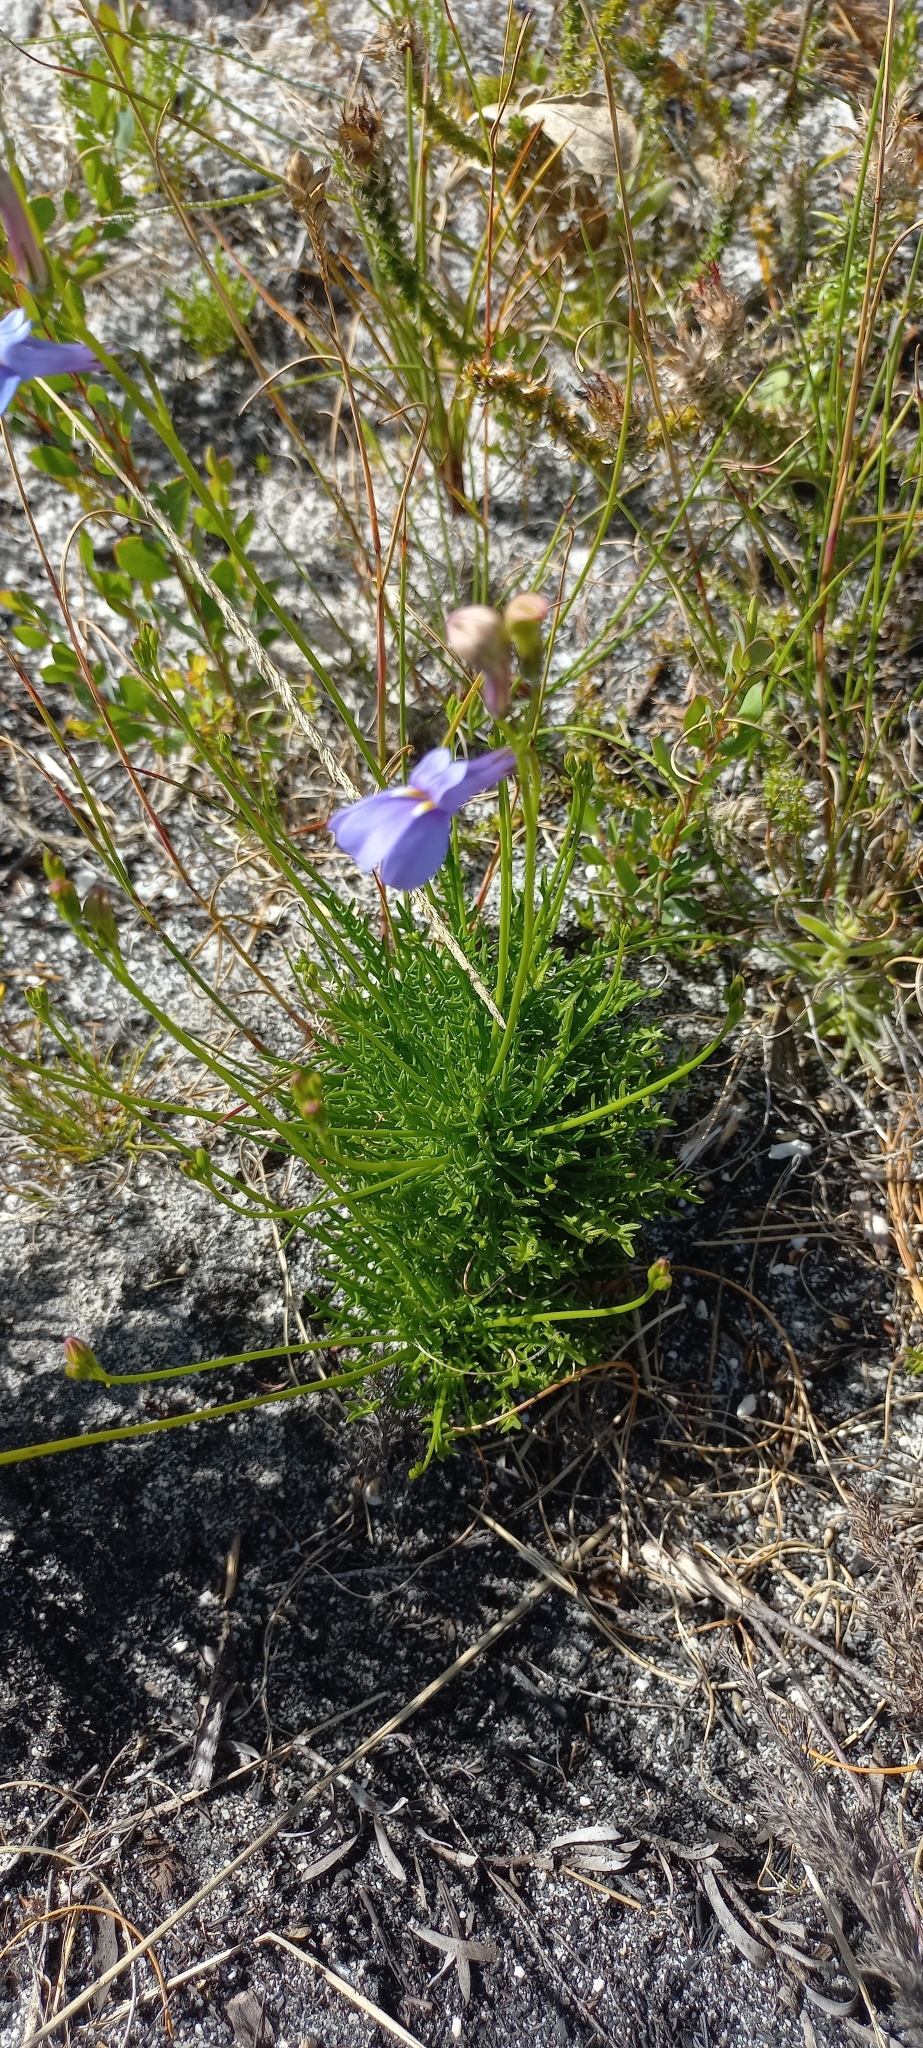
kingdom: Plantae
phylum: Tracheophyta
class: Magnoliopsida
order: Asterales
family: Campanulaceae
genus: Lobelia
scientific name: Lobelia coronopifolia
